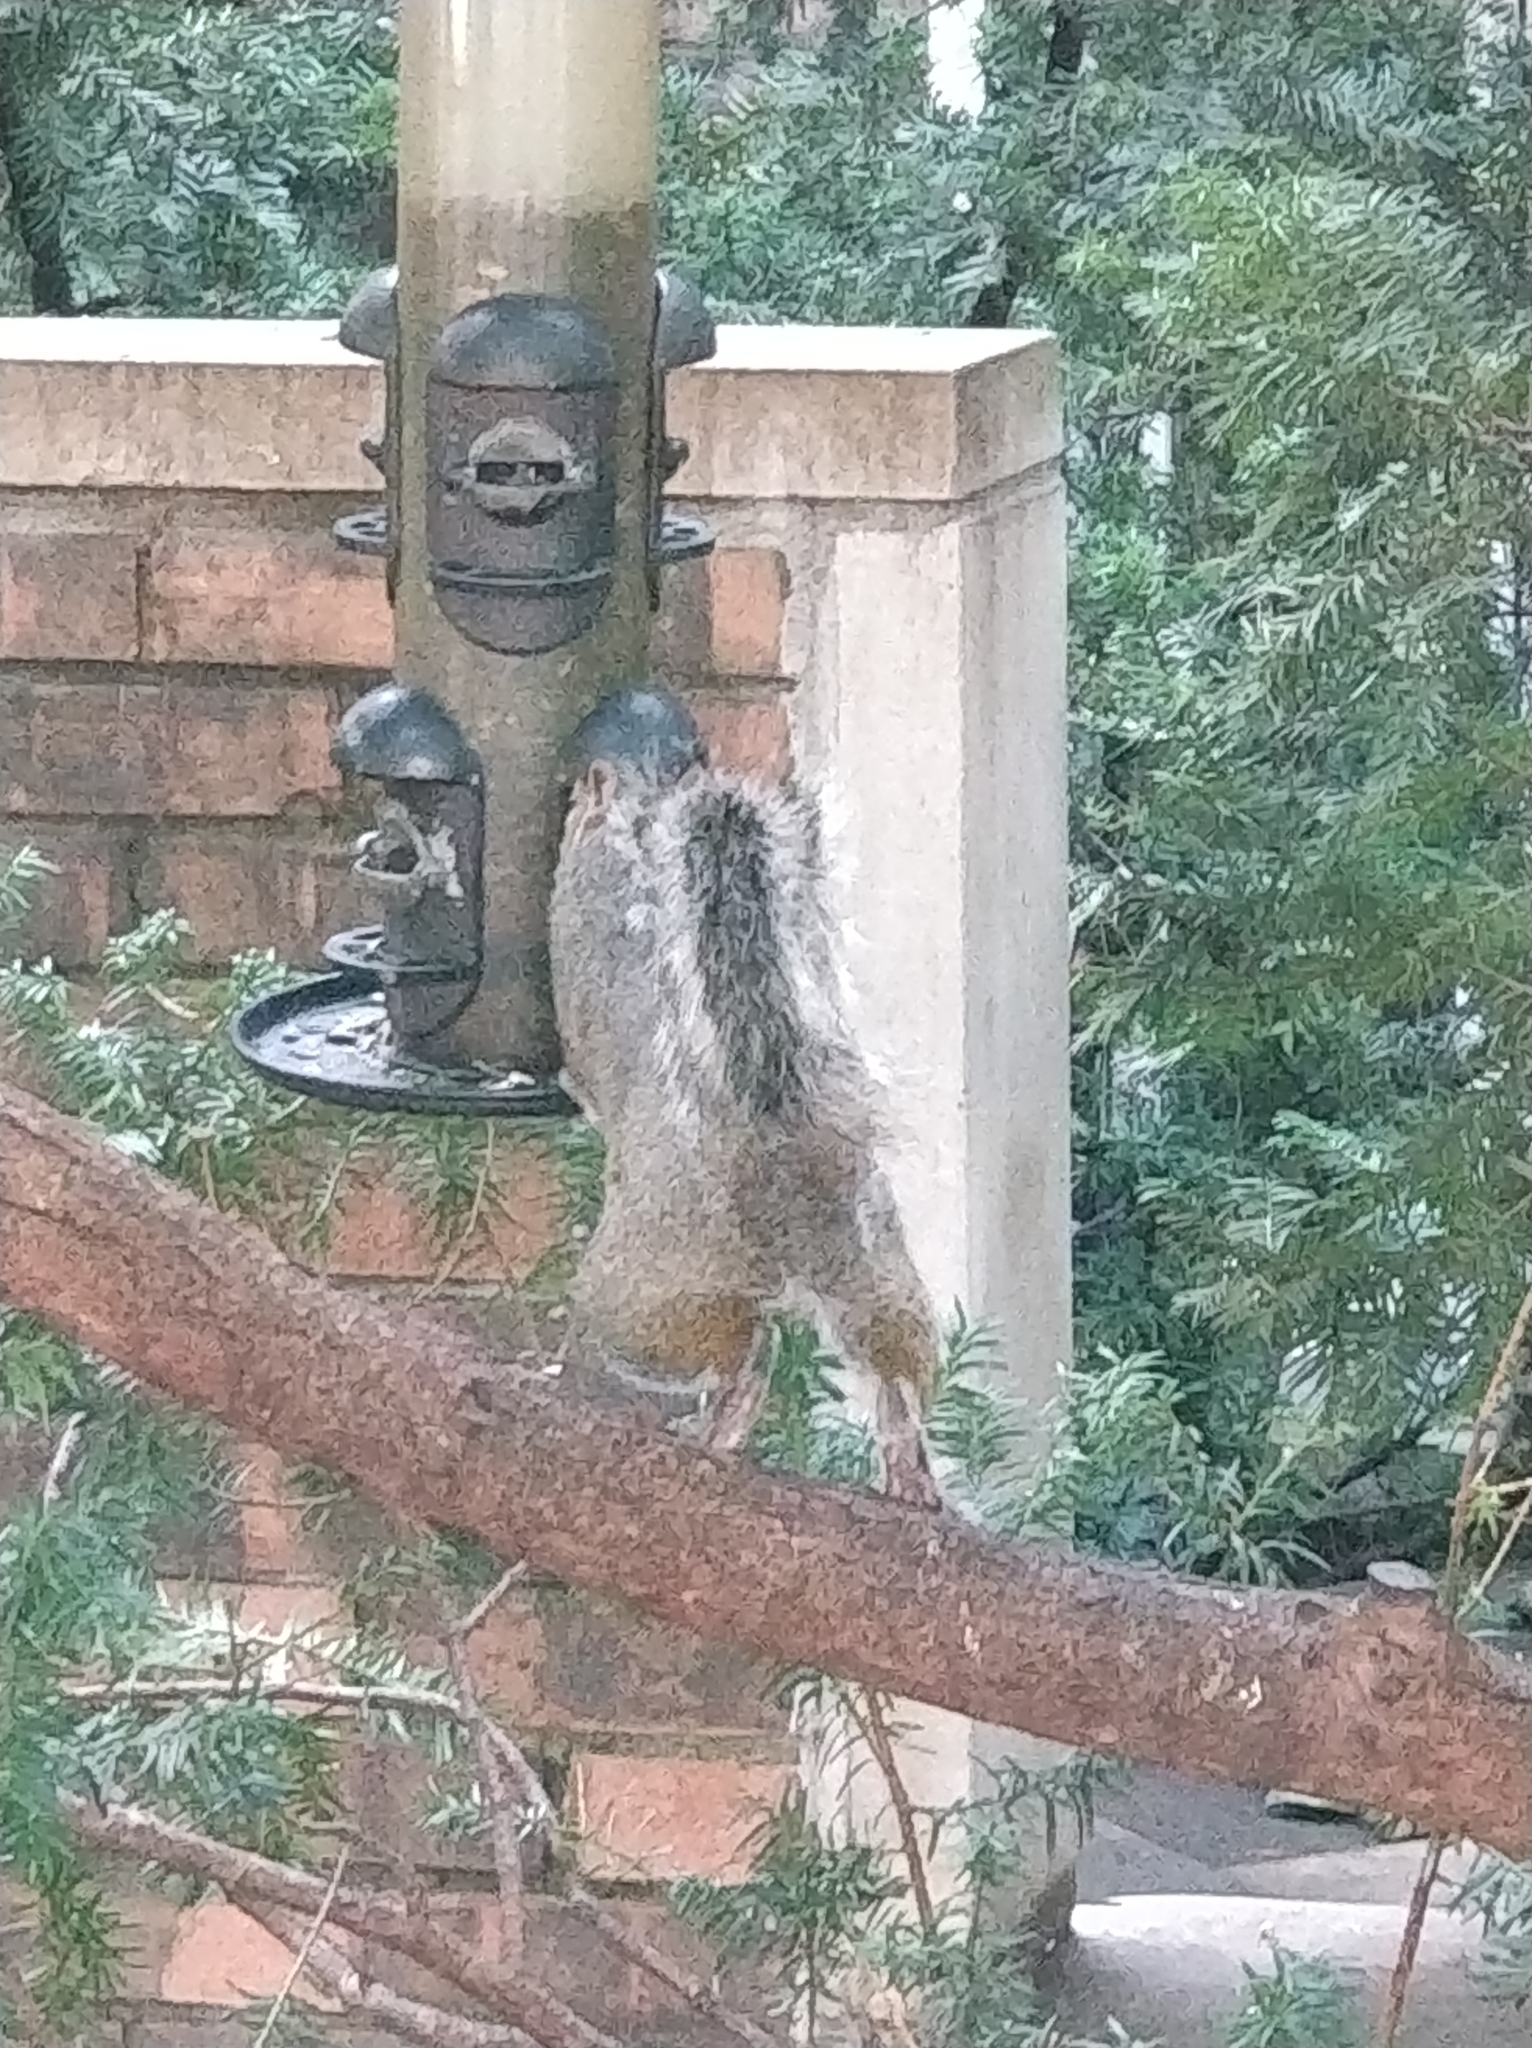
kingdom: Animalia
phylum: Chordata
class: Mammalia
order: Rodentia
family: Sciuridae
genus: Sciurus
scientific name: Sciurus carolinensis
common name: Eastern gray squirrel
